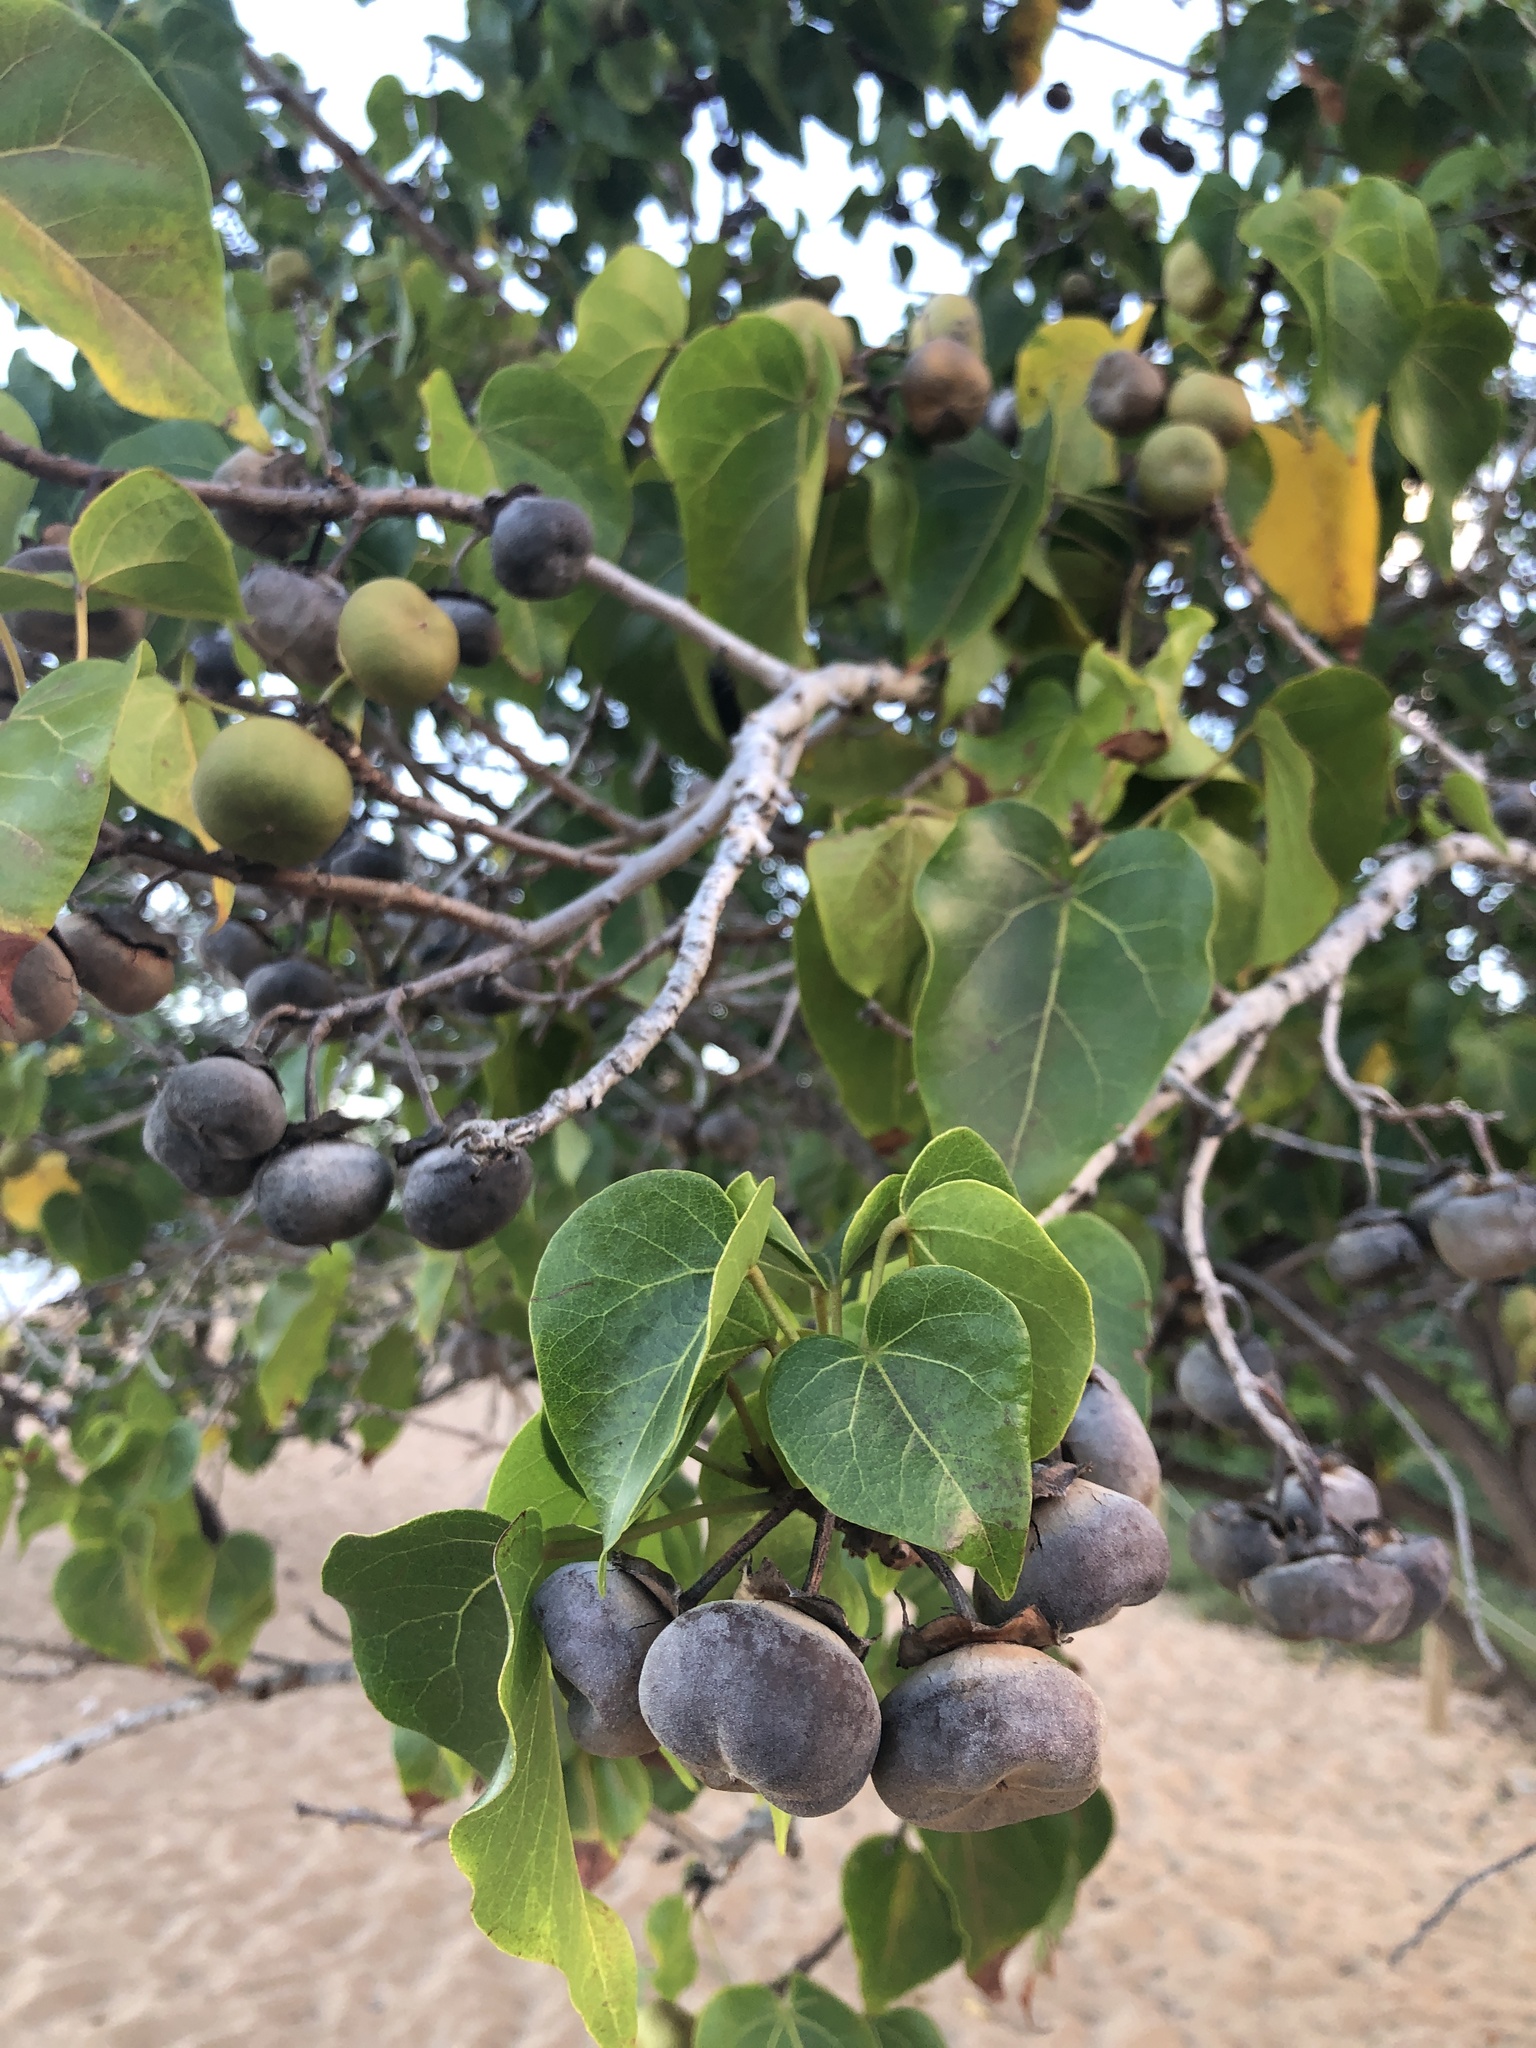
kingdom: Plantae
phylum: Tracheophyta
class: Magnoliopsida
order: Malvales
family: Malvaceae
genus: Thespesia
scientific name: Thespesia populnea
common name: Seaside mahoe
